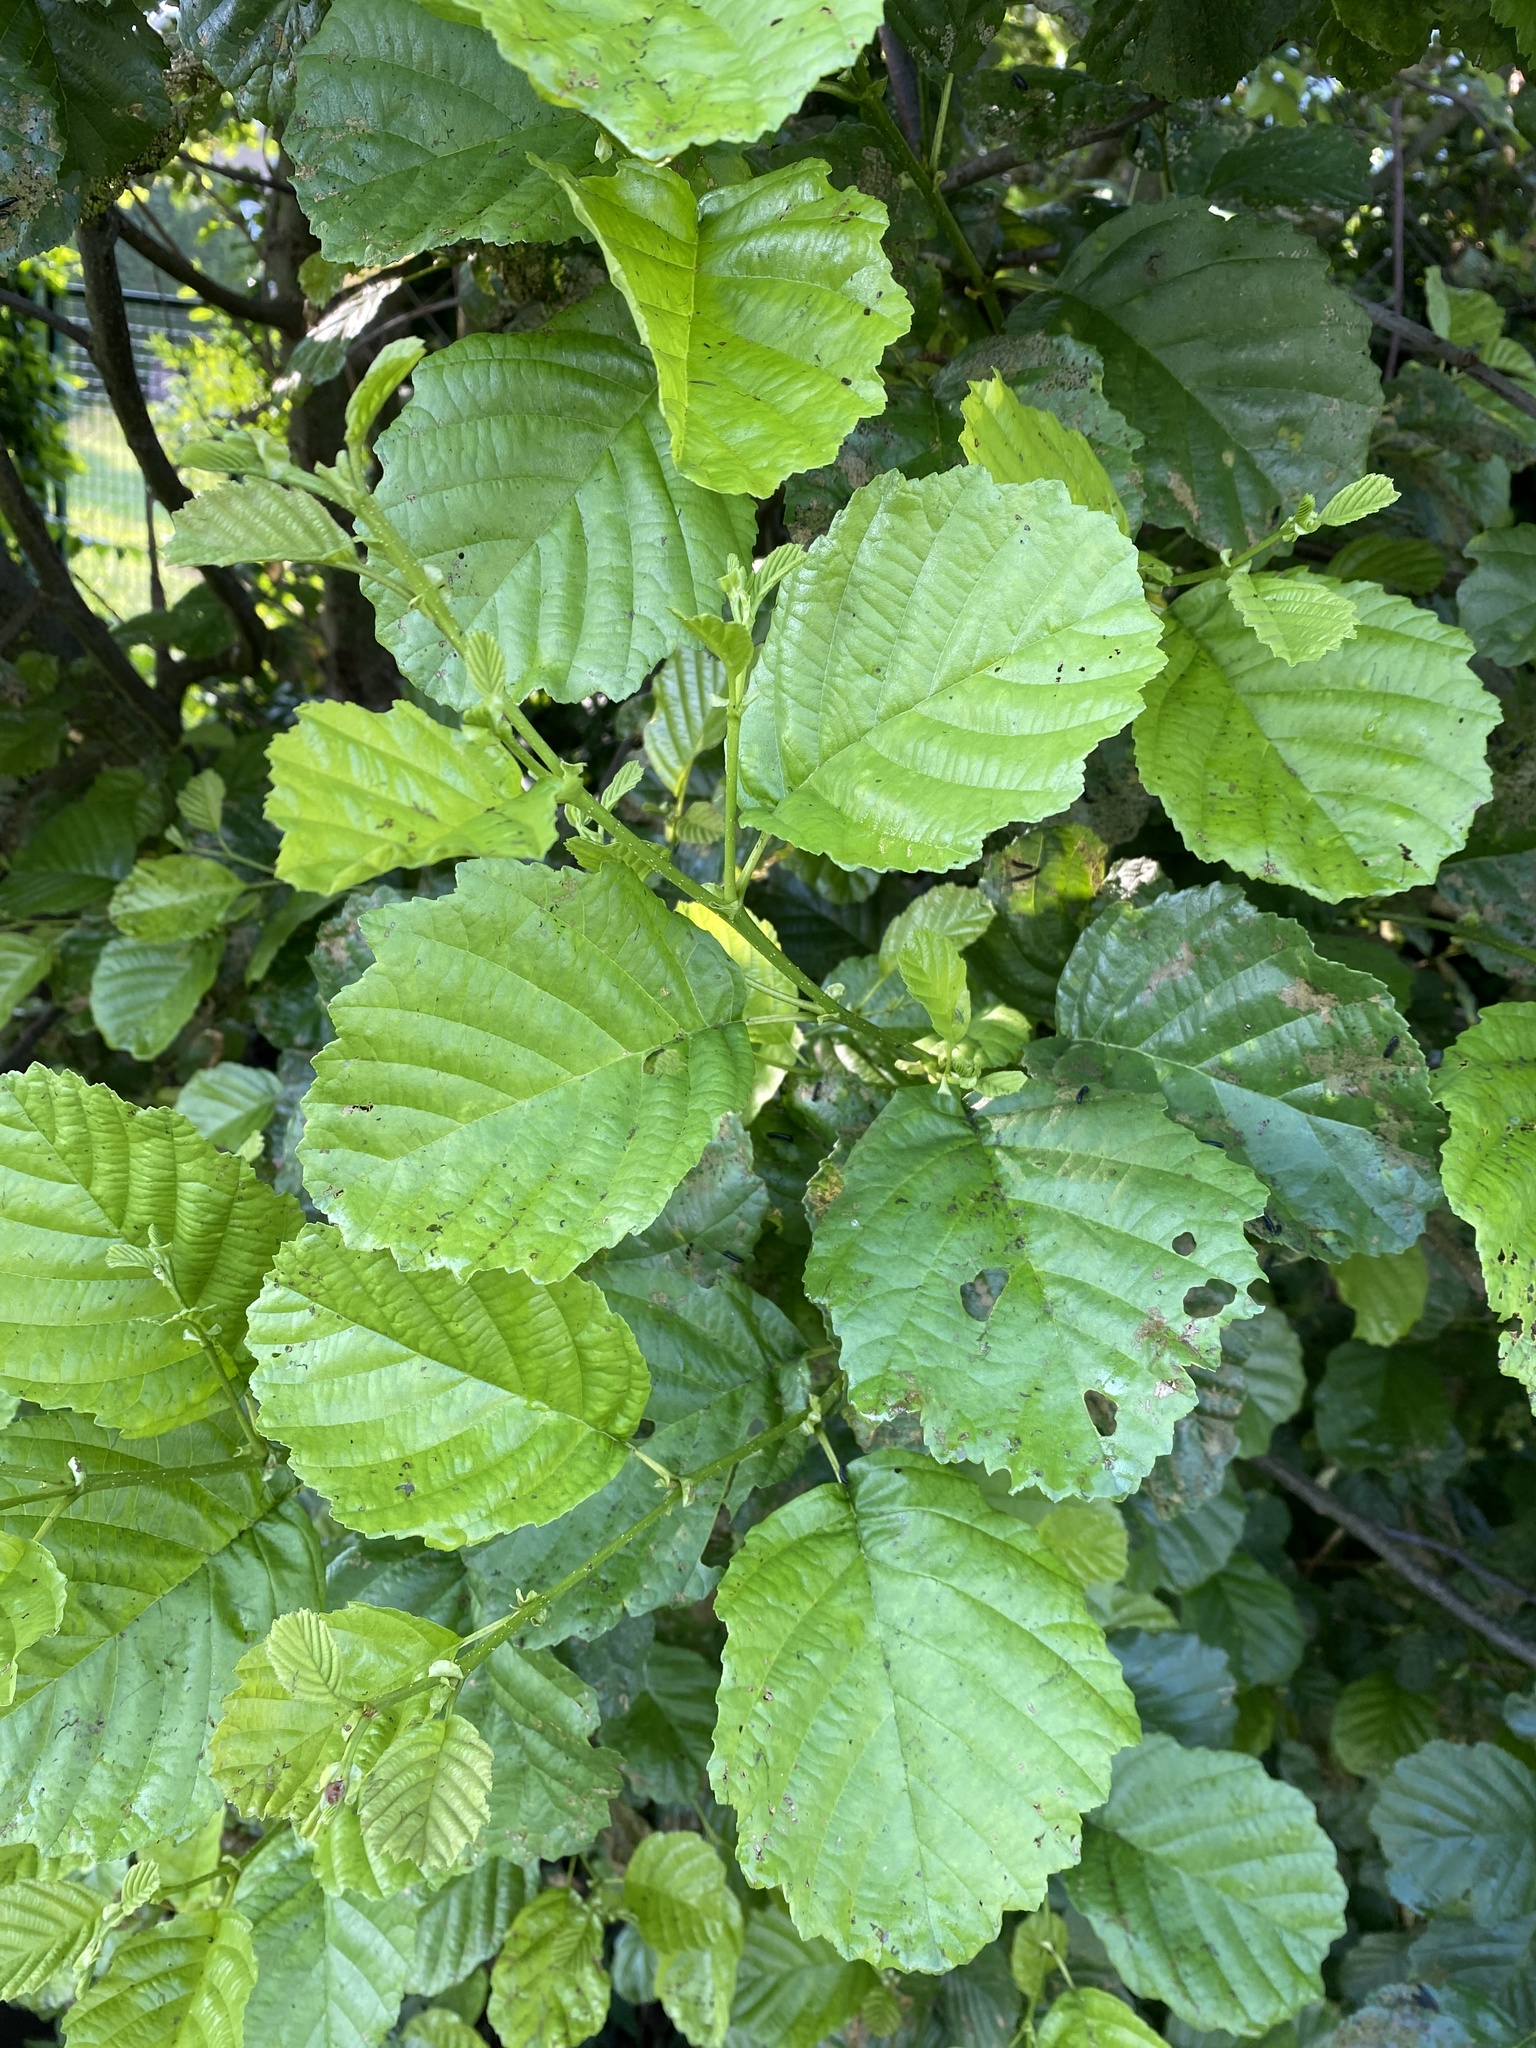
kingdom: Plantae
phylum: Tracheophyta
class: Magnoliopsida
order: Fagales
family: Betulaceae
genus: Alnus
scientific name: Alnus glutinosa
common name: Black alder
